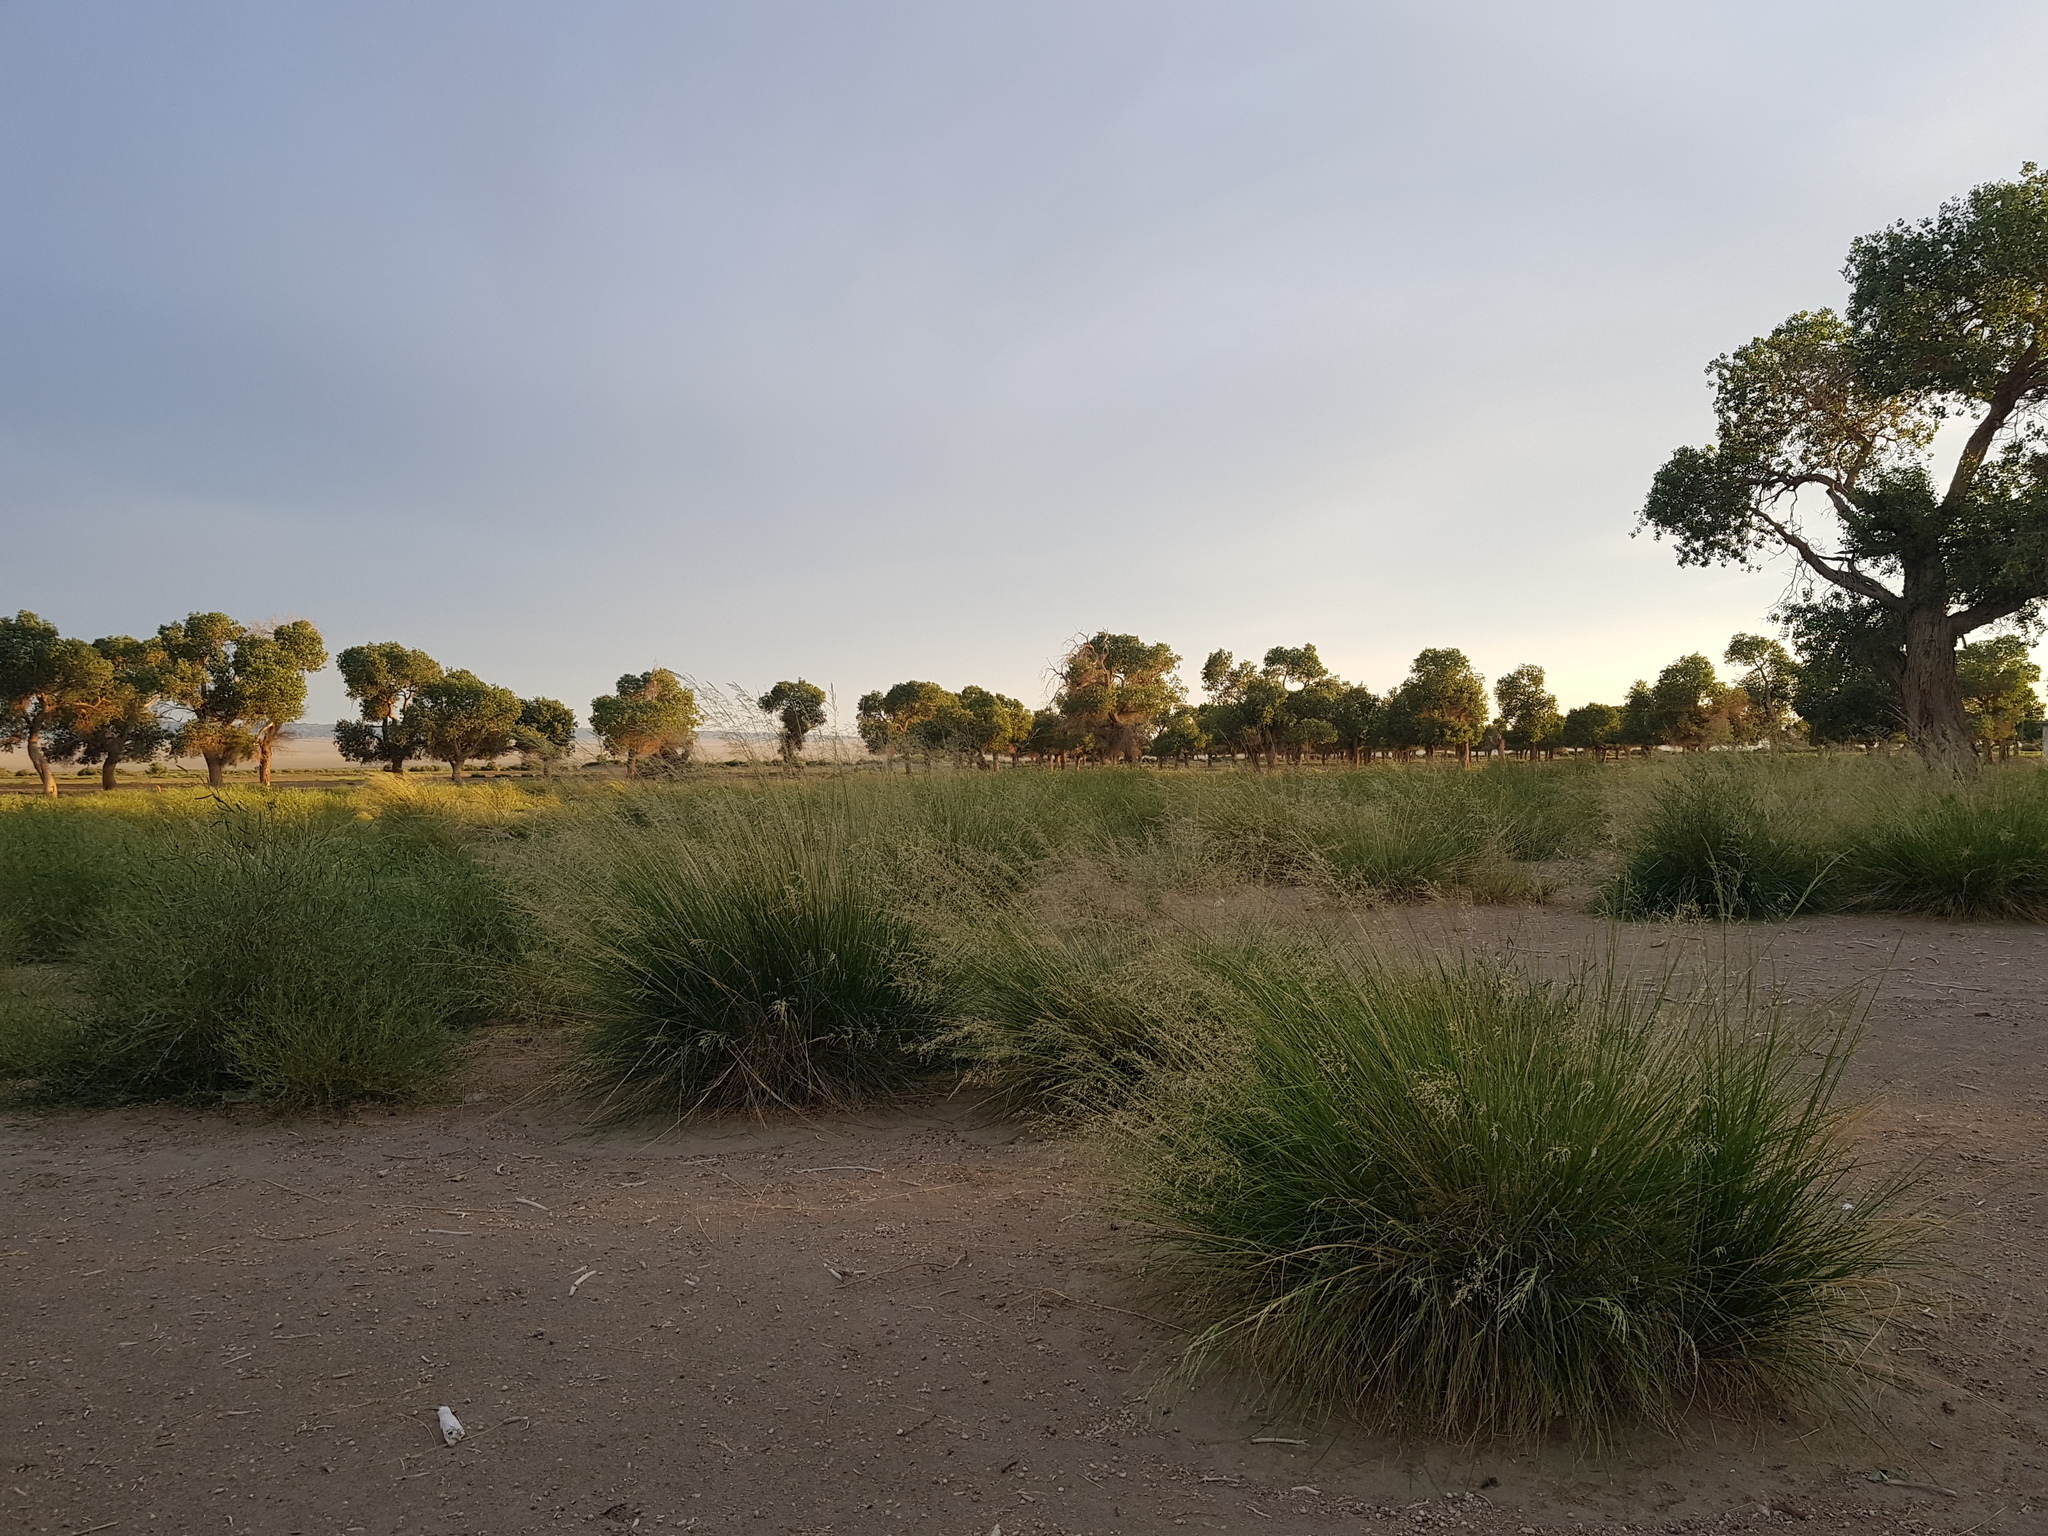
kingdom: Plantae
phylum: Tracheophyta
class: Magnoliopsida
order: Malpighiales
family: Salicaceae
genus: Populus
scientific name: Populus euphratica
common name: Euphrates poplar
